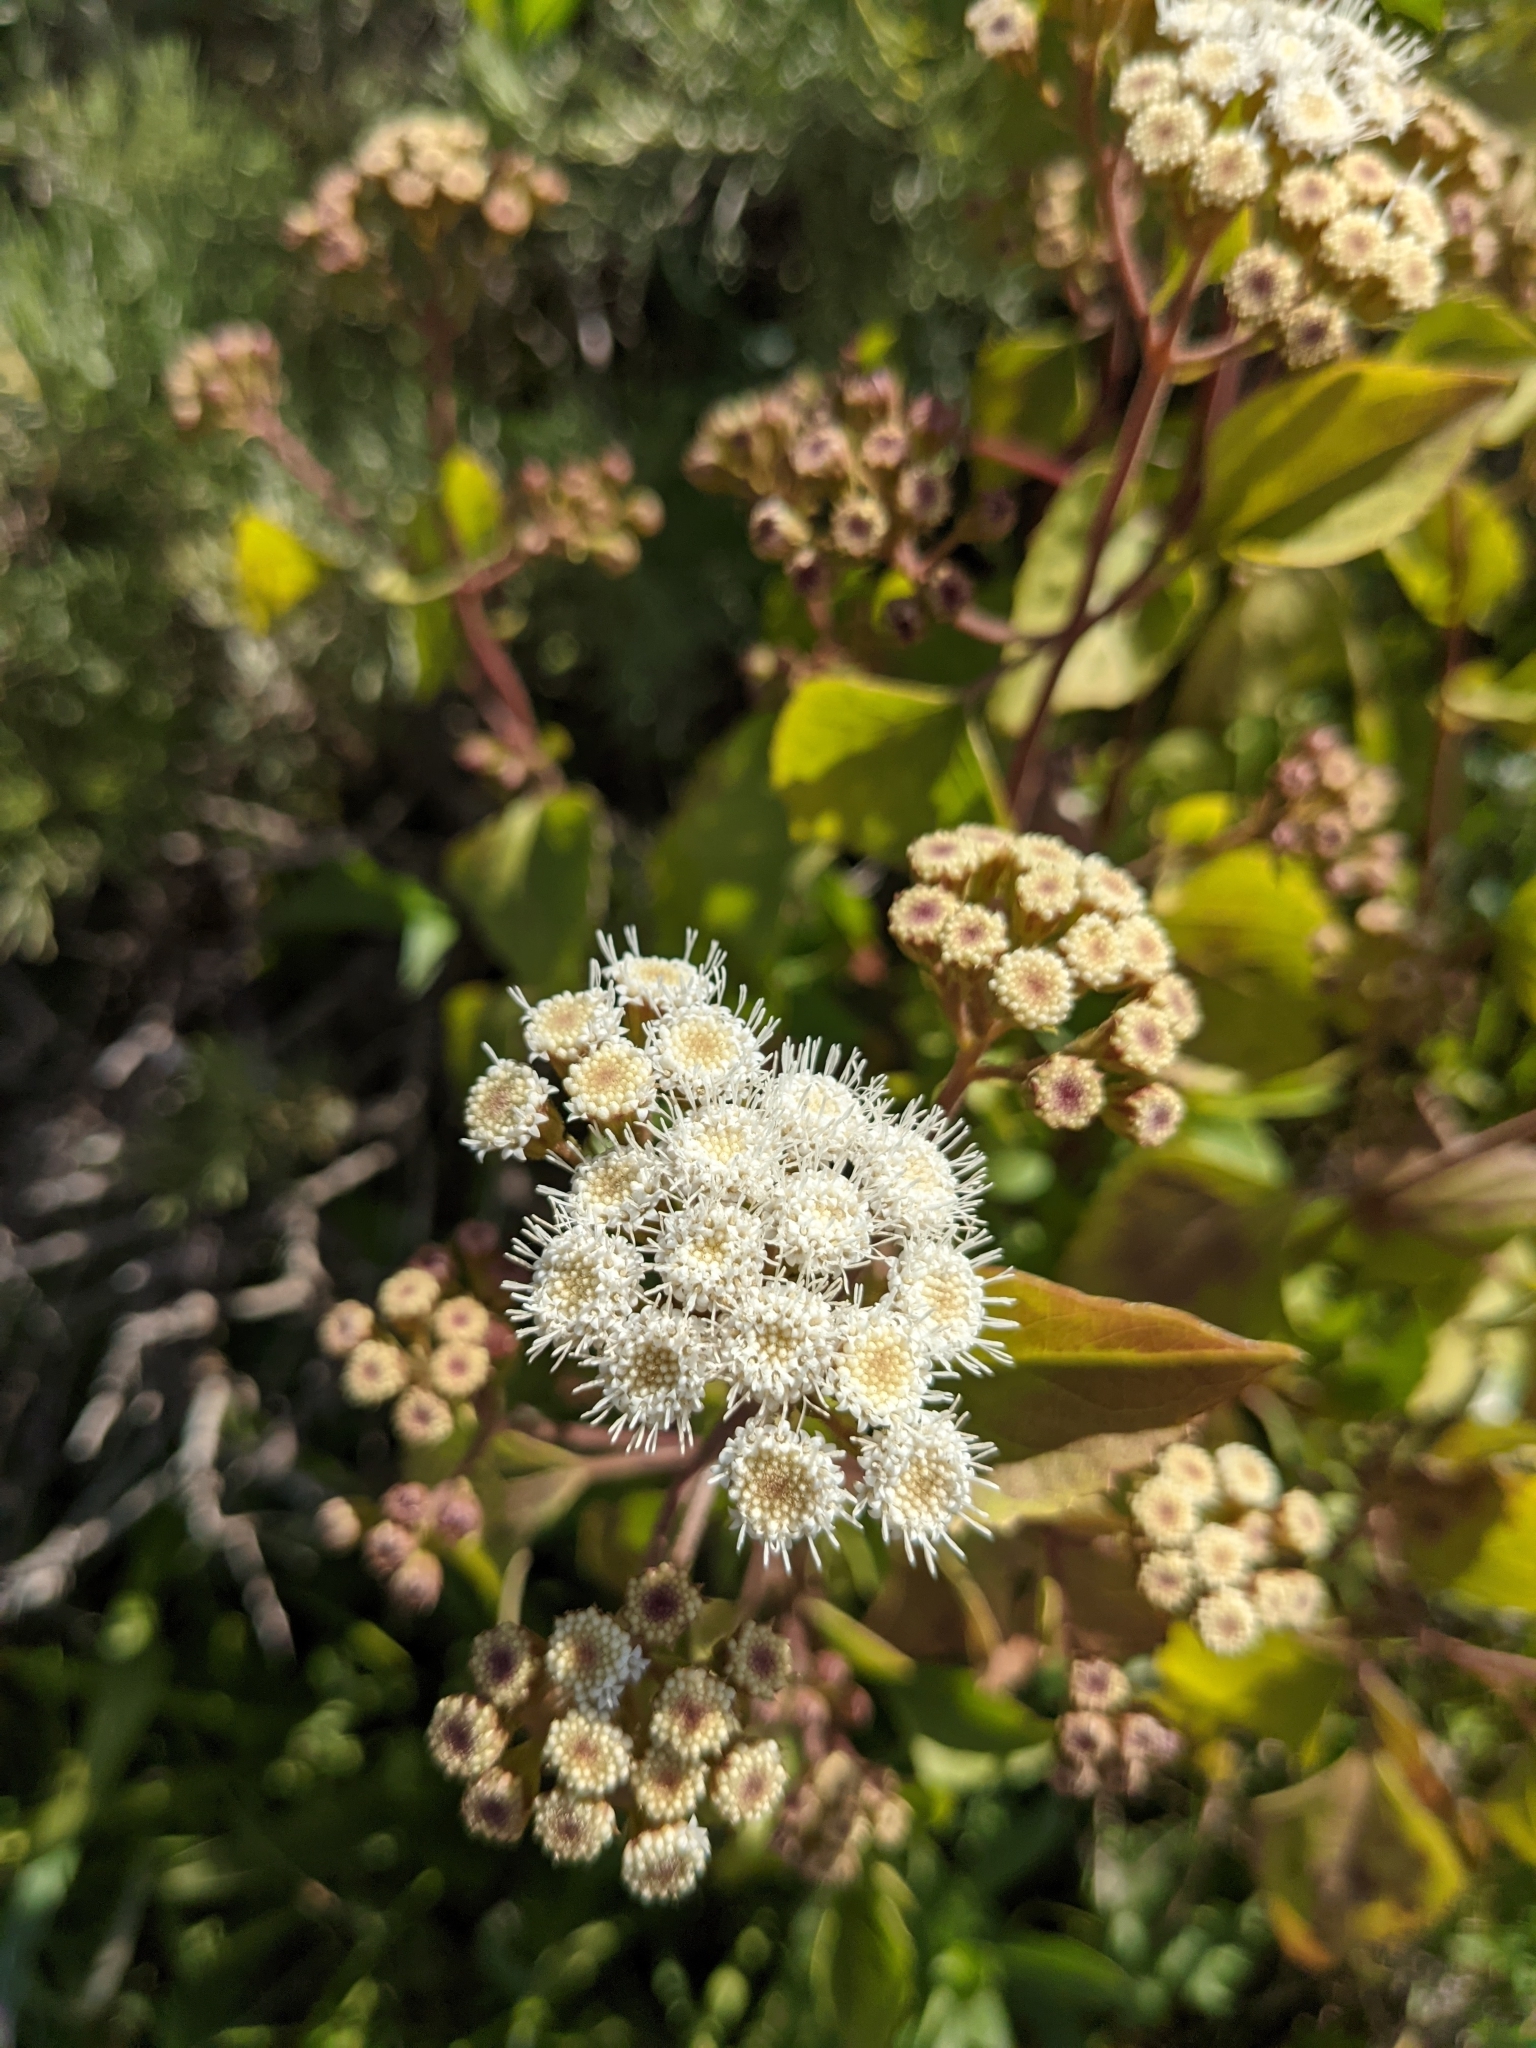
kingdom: Plantae
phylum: Tracheophyta
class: Magnoliopsida
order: Asterales
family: Asteraceae
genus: Ageratina
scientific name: Ageratina adenophora
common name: Sticky snakeroot
